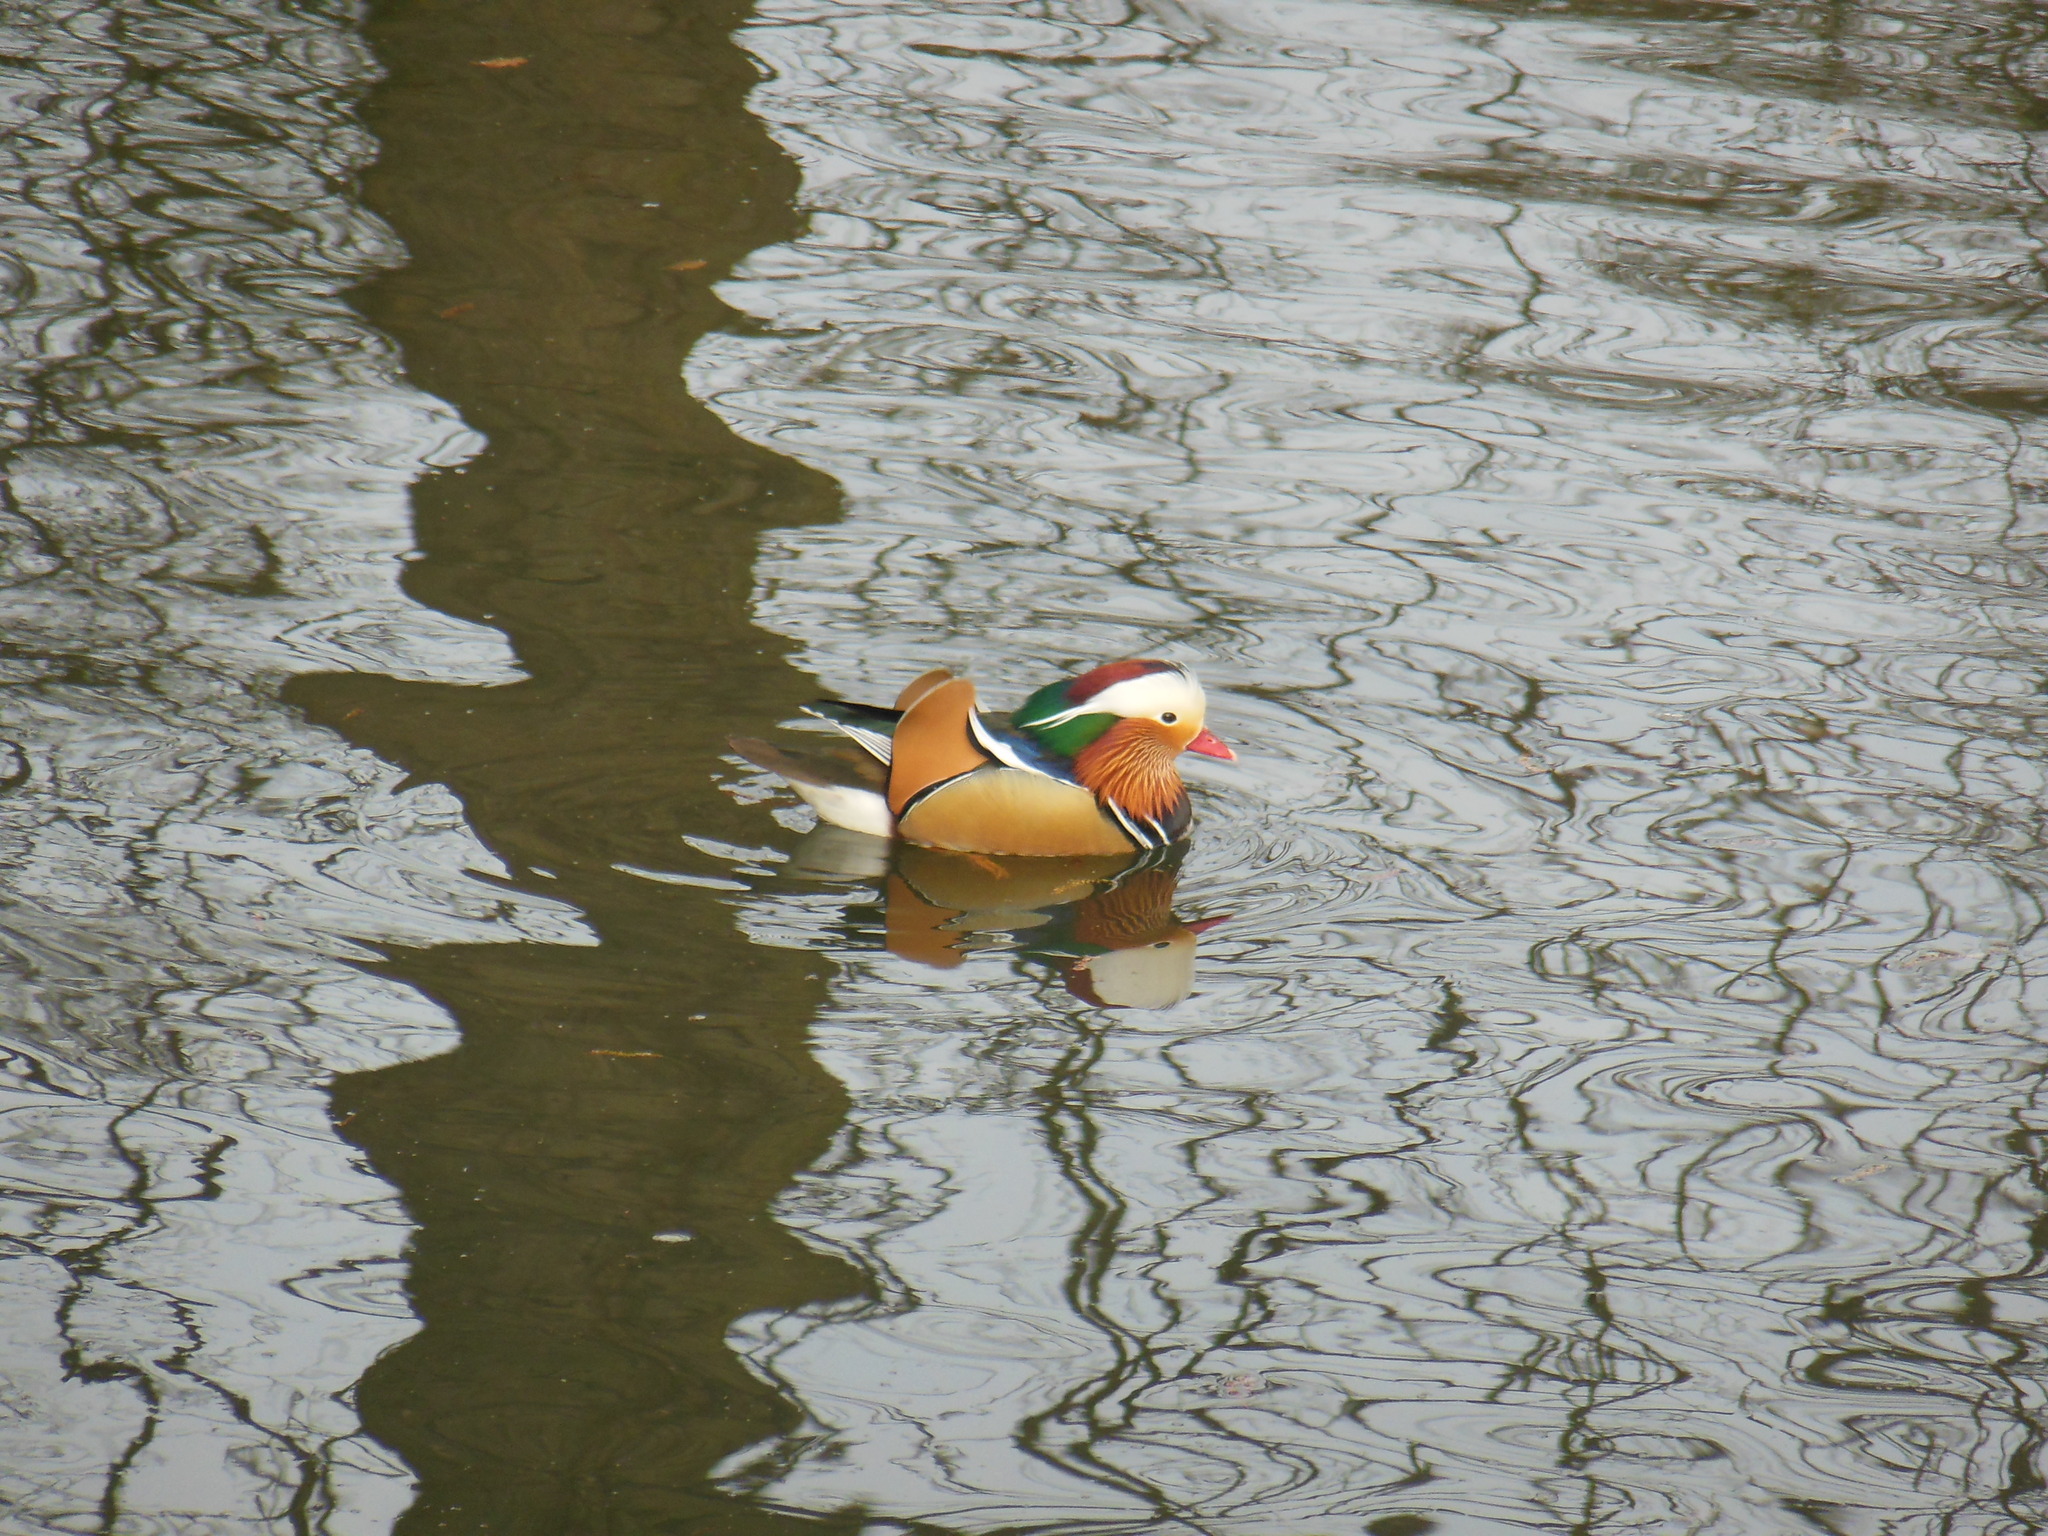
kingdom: Animalia
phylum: Chordata
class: Aves
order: Anseriformes
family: Anatidae
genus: Aix
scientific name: Aix galericulata
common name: Mandarin duck
